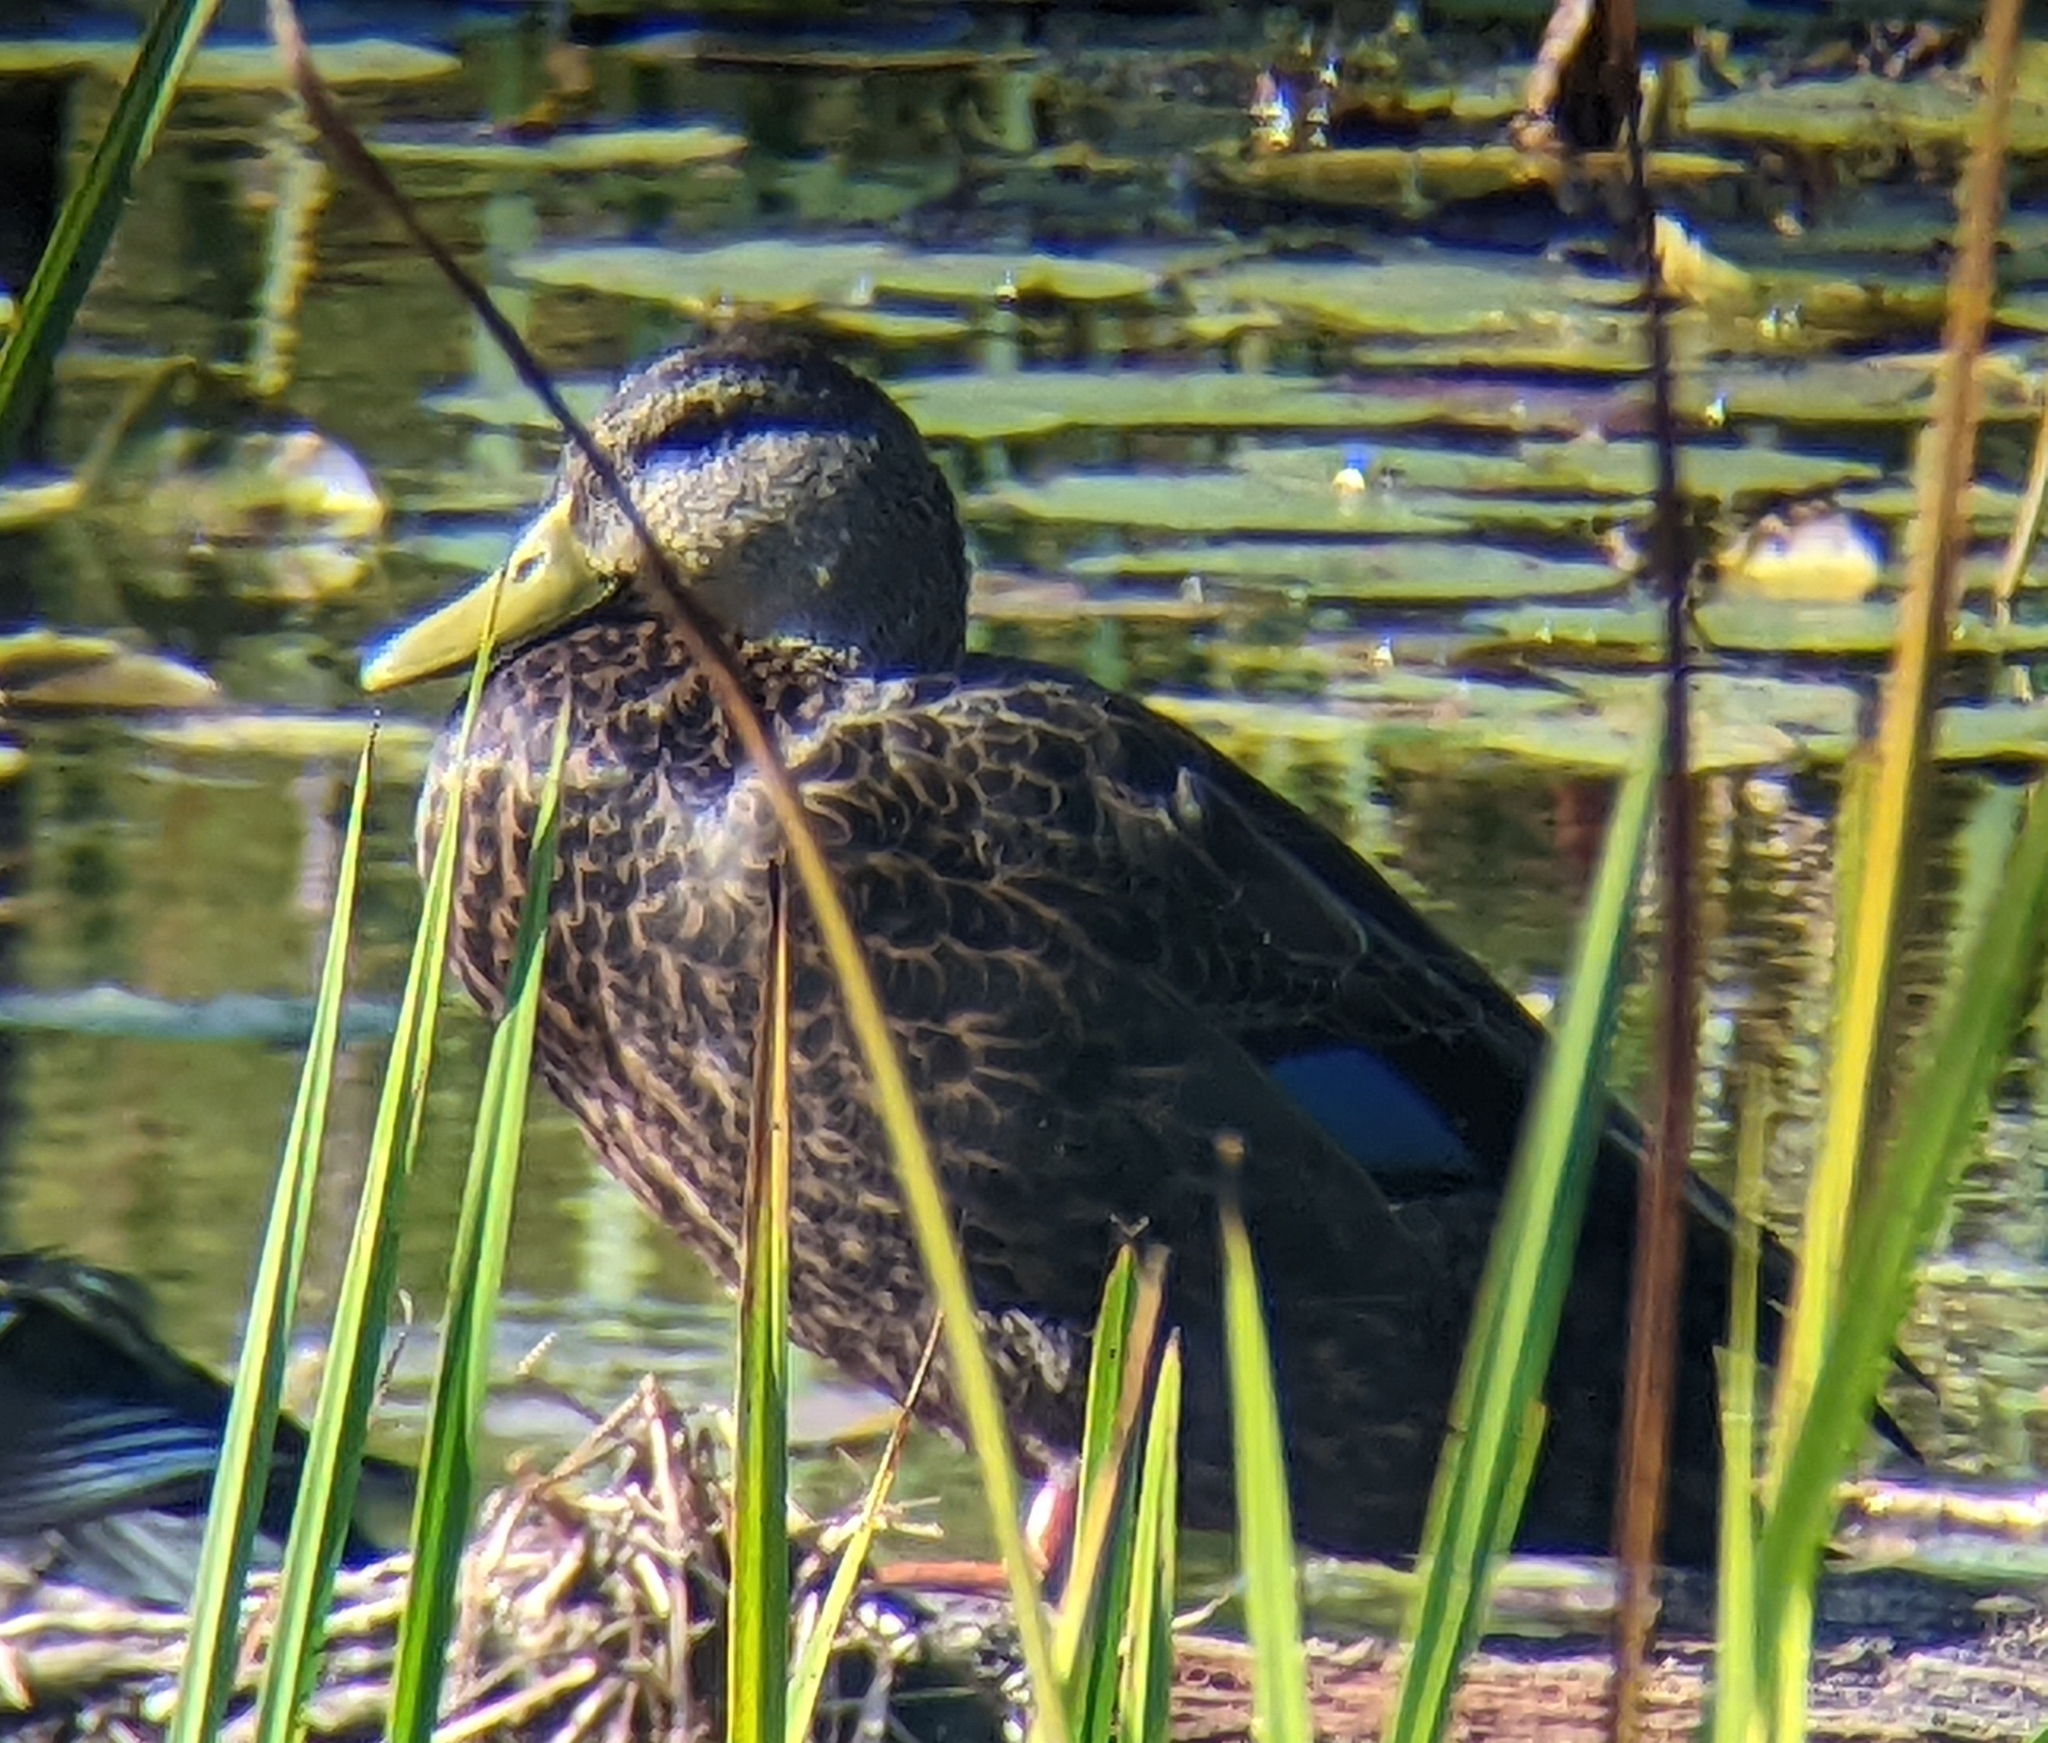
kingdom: Animalia
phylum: Chordata
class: Aves
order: Anseriformes
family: Anatidae
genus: Anas
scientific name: Anas rubripes
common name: American black duck
